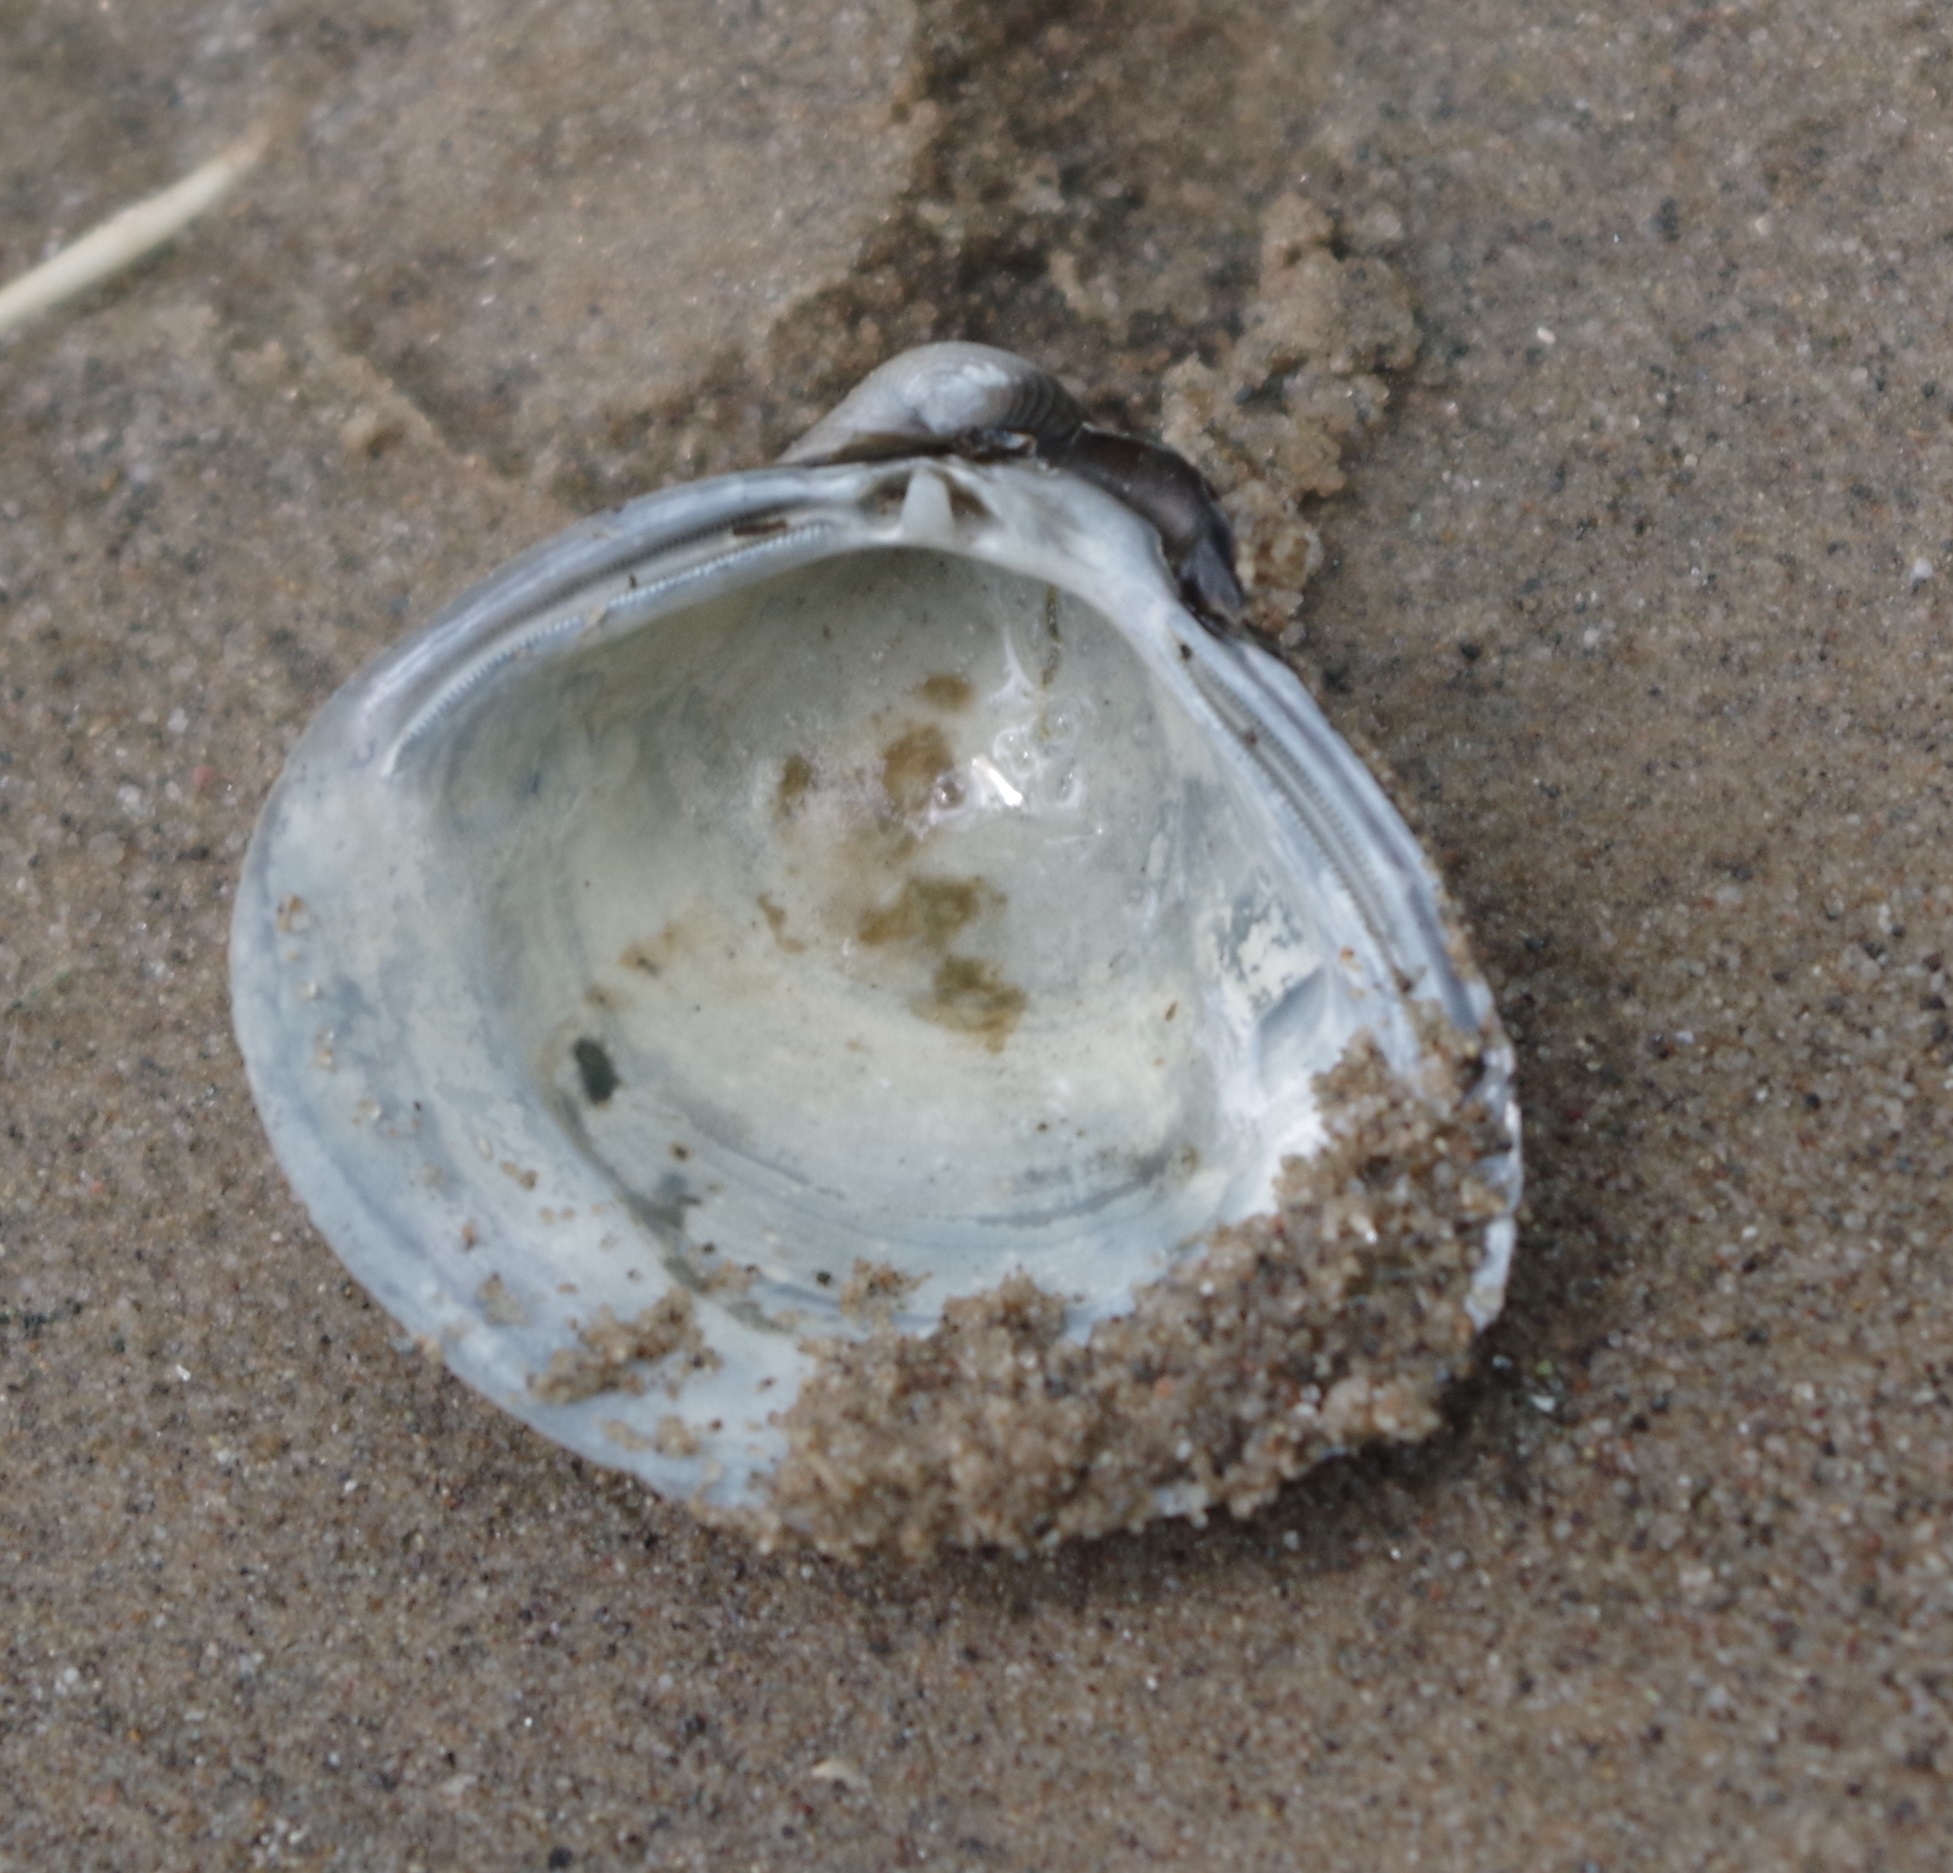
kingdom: Animalia
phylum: Mollusca
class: Bivalvia
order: Venerida
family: Cyrenidae
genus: Corbicula
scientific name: Corbicula fluminea
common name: Asian clam
